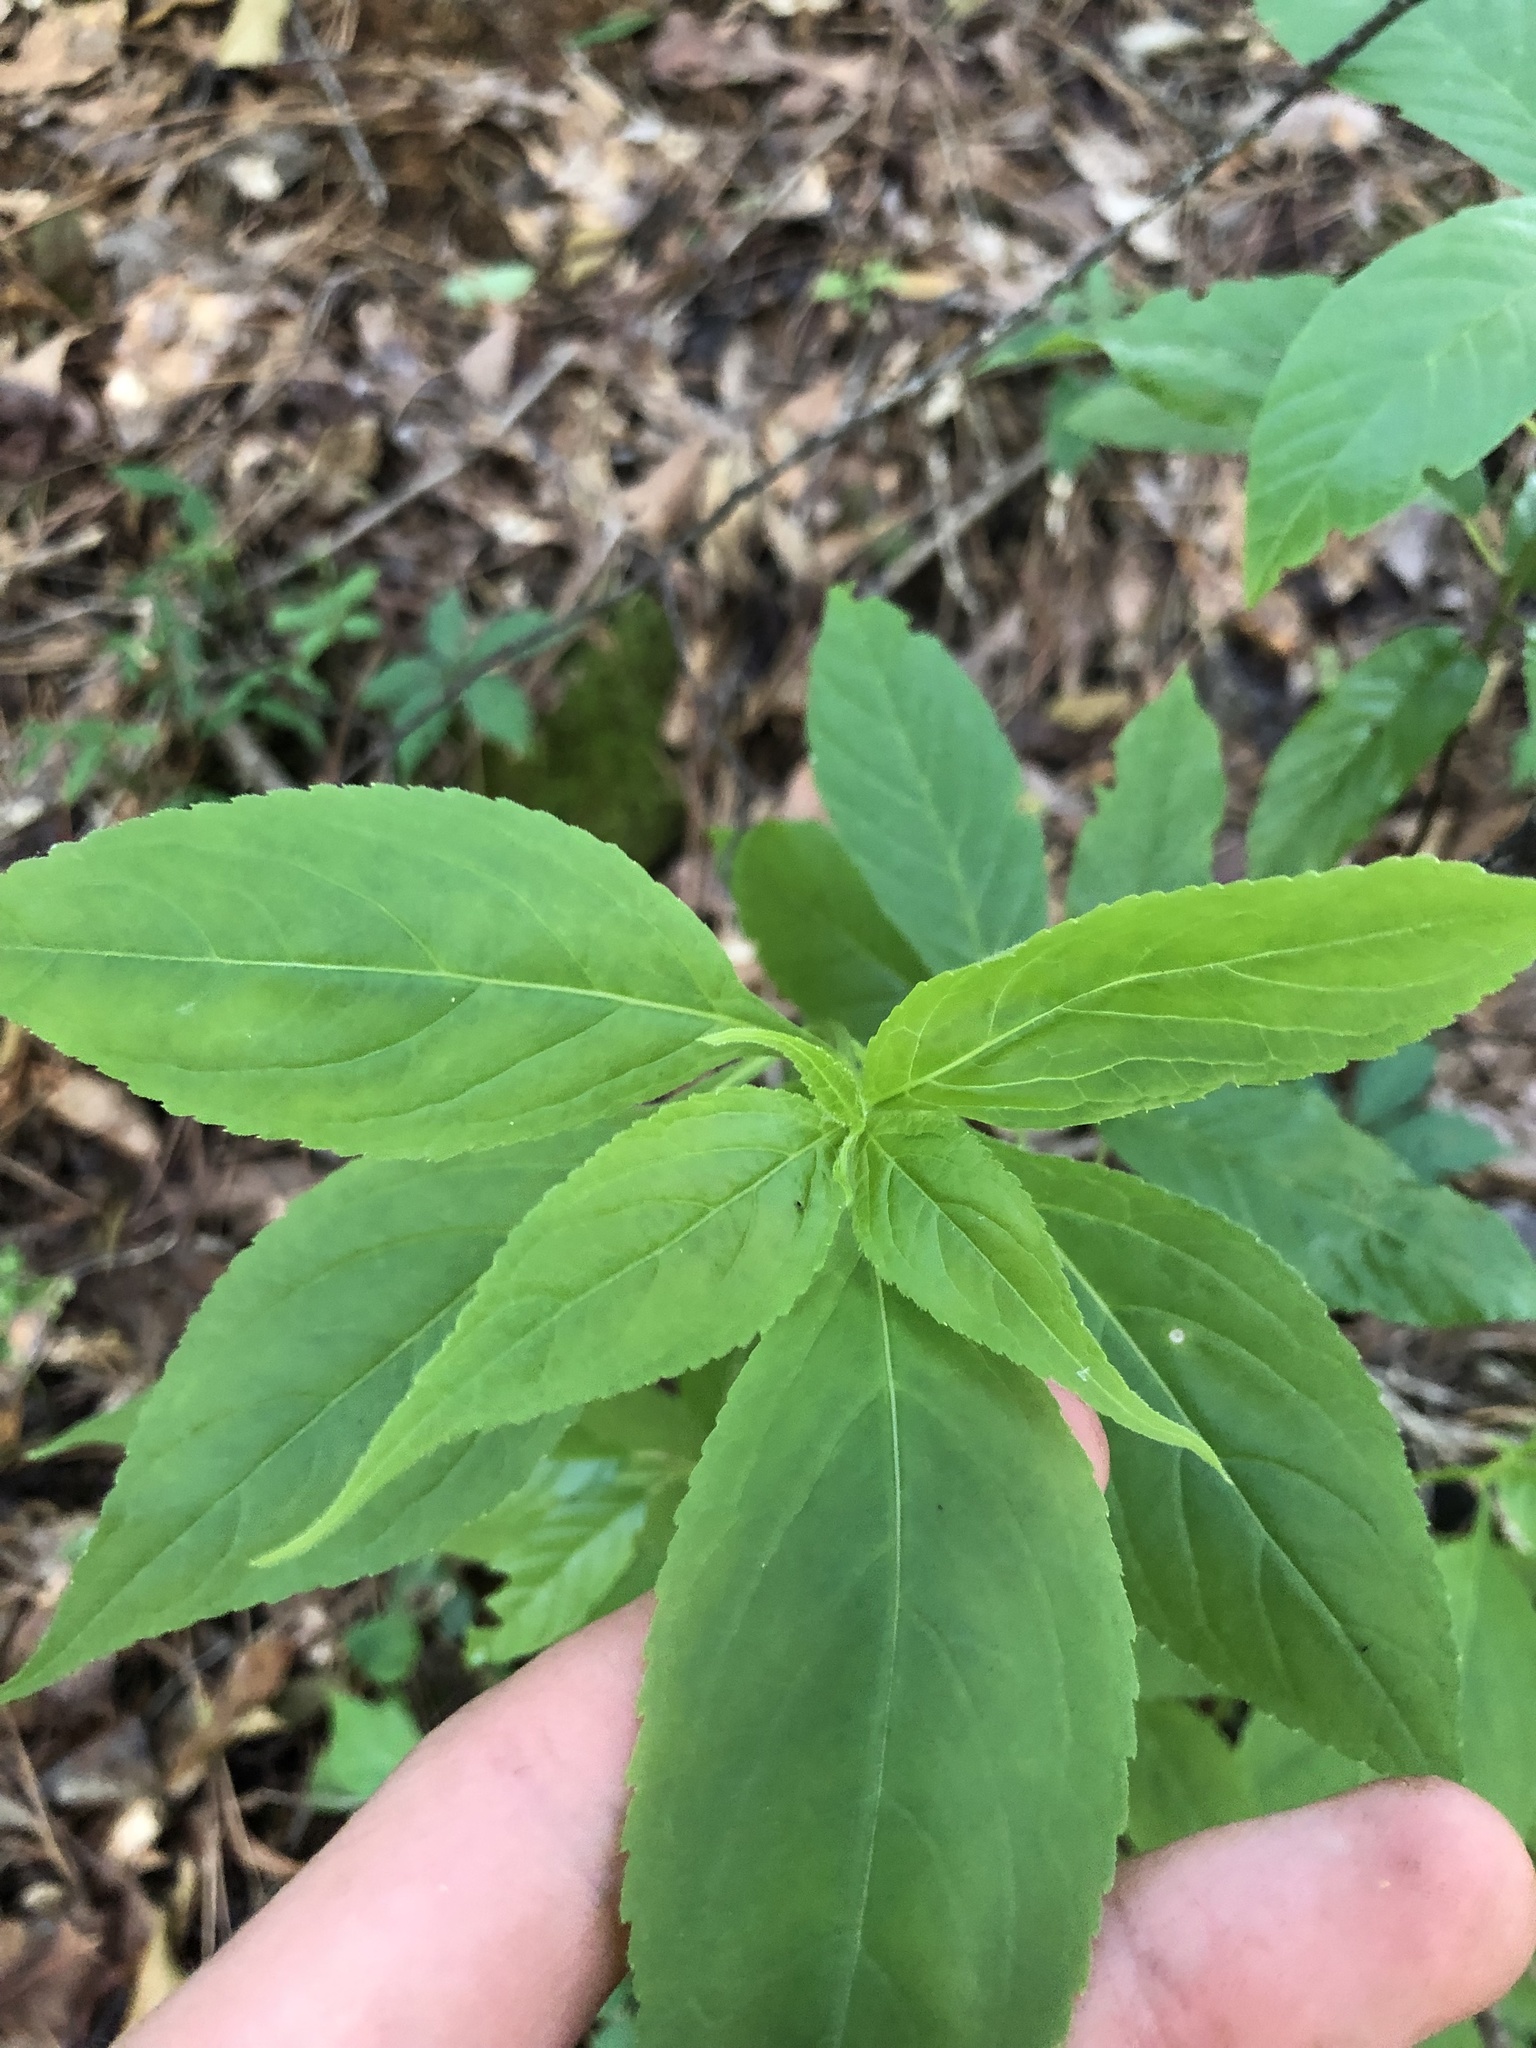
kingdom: Plantae
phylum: Tracheophyta
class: Magnoliopsida
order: Asterales
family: Campanulaceae
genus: Campanulastrum
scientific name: Campanulastrum americanum
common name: American bellflower
